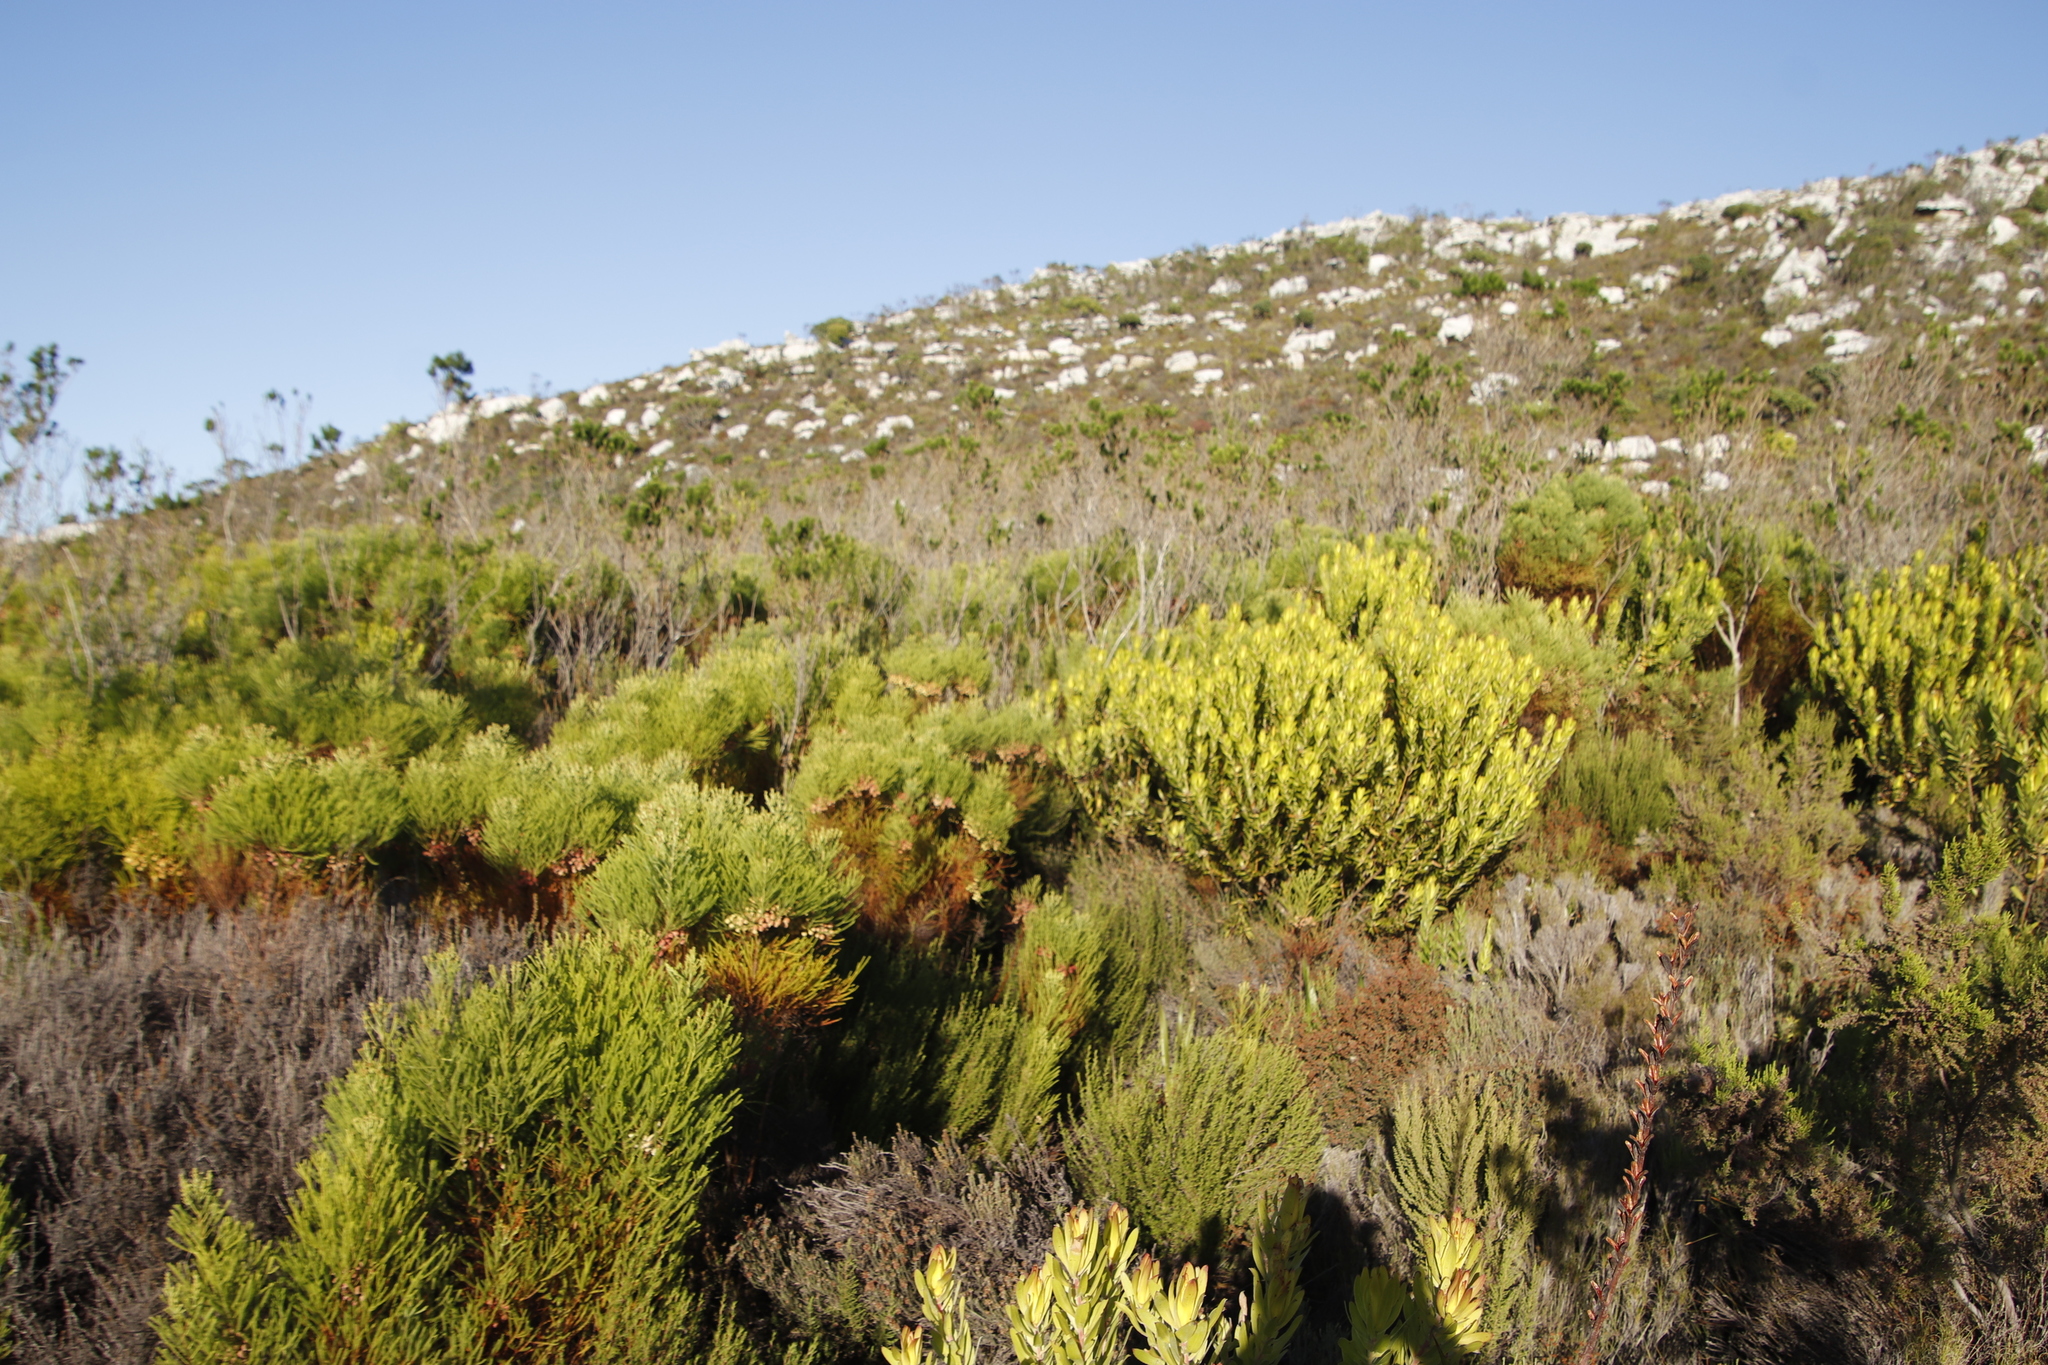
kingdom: Plantae
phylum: Tracheophyta
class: Magnoliopsida
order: Fabales
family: Fabaceae
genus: Psoralea
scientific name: Psoralea pinnata
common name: African scurfpea
